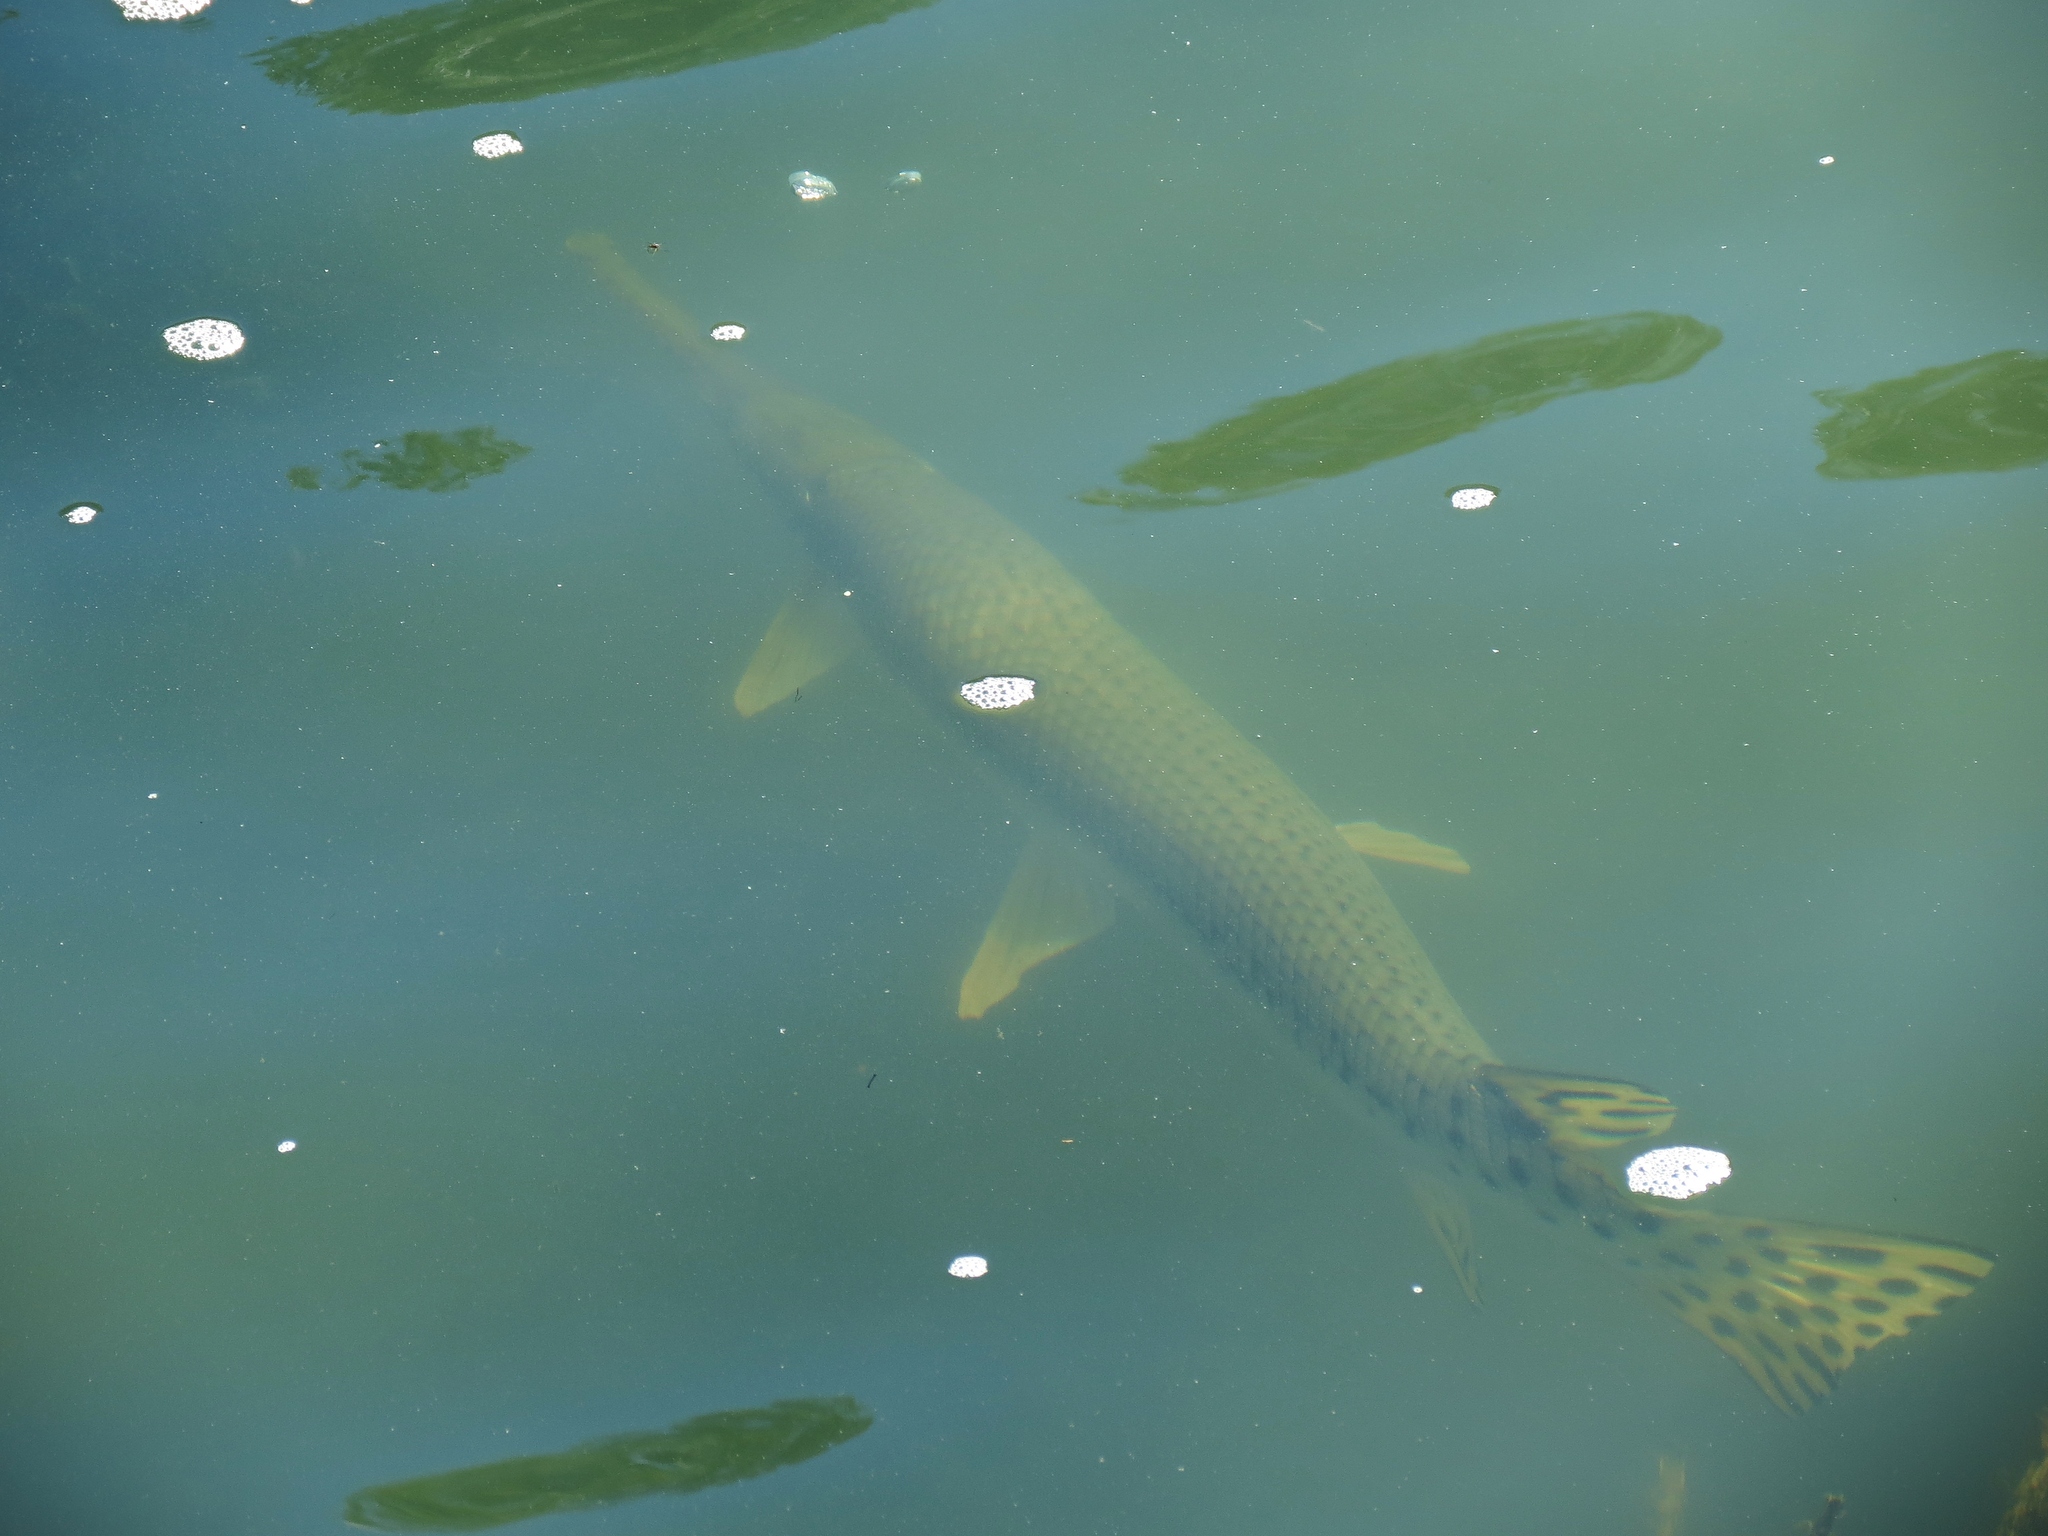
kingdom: Animalia
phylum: Chordata
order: Lepisosteiformes
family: Lepisosteidae
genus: Lepisosteus
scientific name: Lepisosteus osseus
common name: Longnose gar
